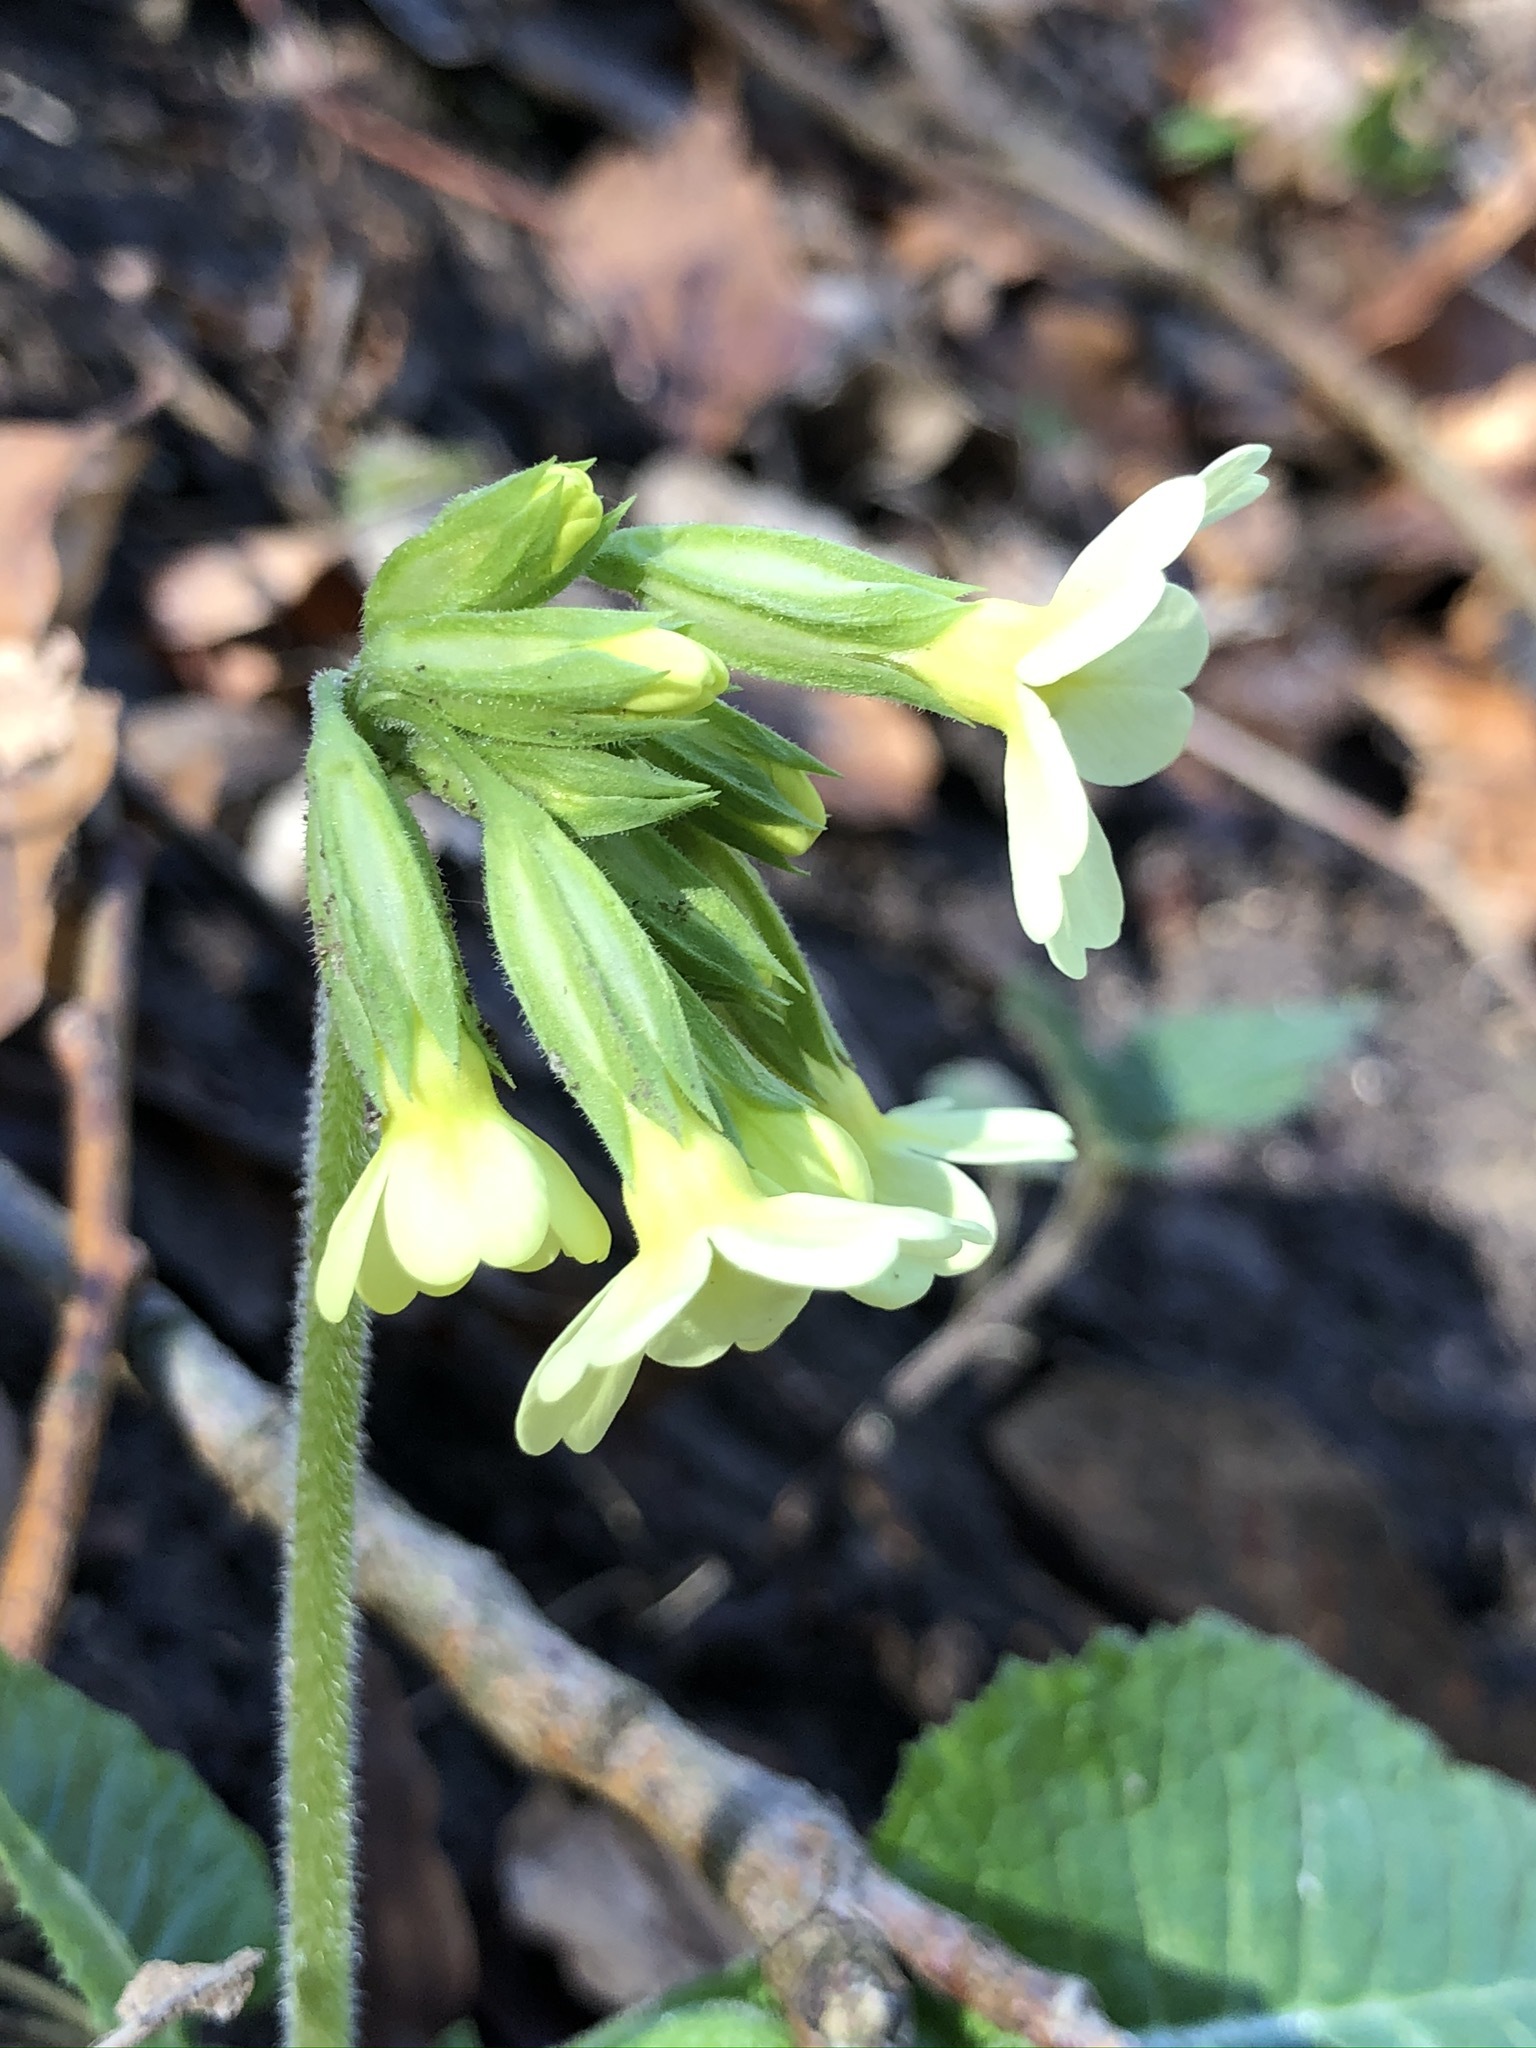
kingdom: Plantae
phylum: Tracheophyta
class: Magnoliopsida
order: Ericales
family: Primulaceae
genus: Primula
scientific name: Primula elatior
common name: Oxlip
